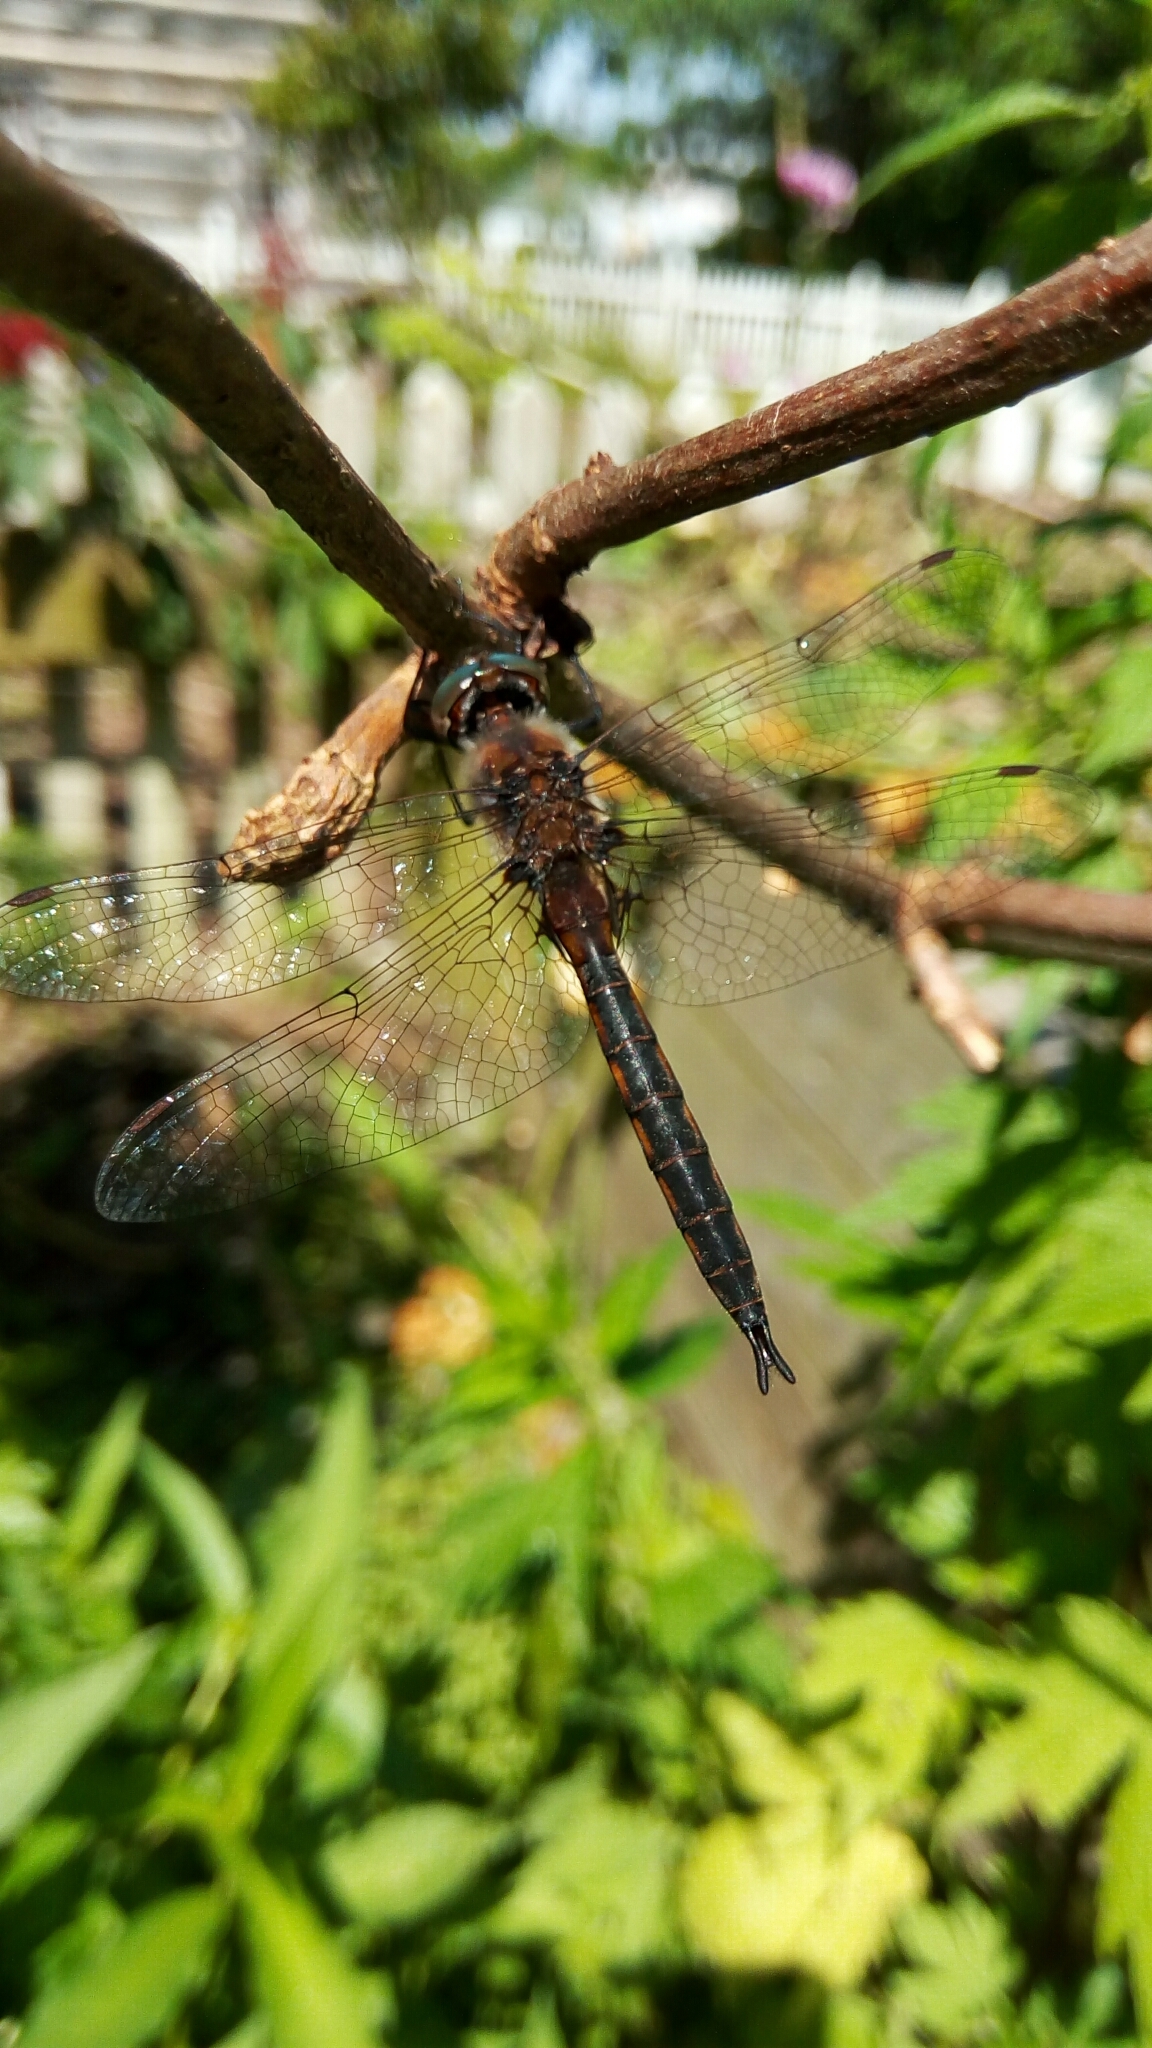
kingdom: Animalia
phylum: Arthropoda
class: Insecta
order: Odonata
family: Corduliidae
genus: Epitheca
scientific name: Epitheca cynosura
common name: Common baskettail
